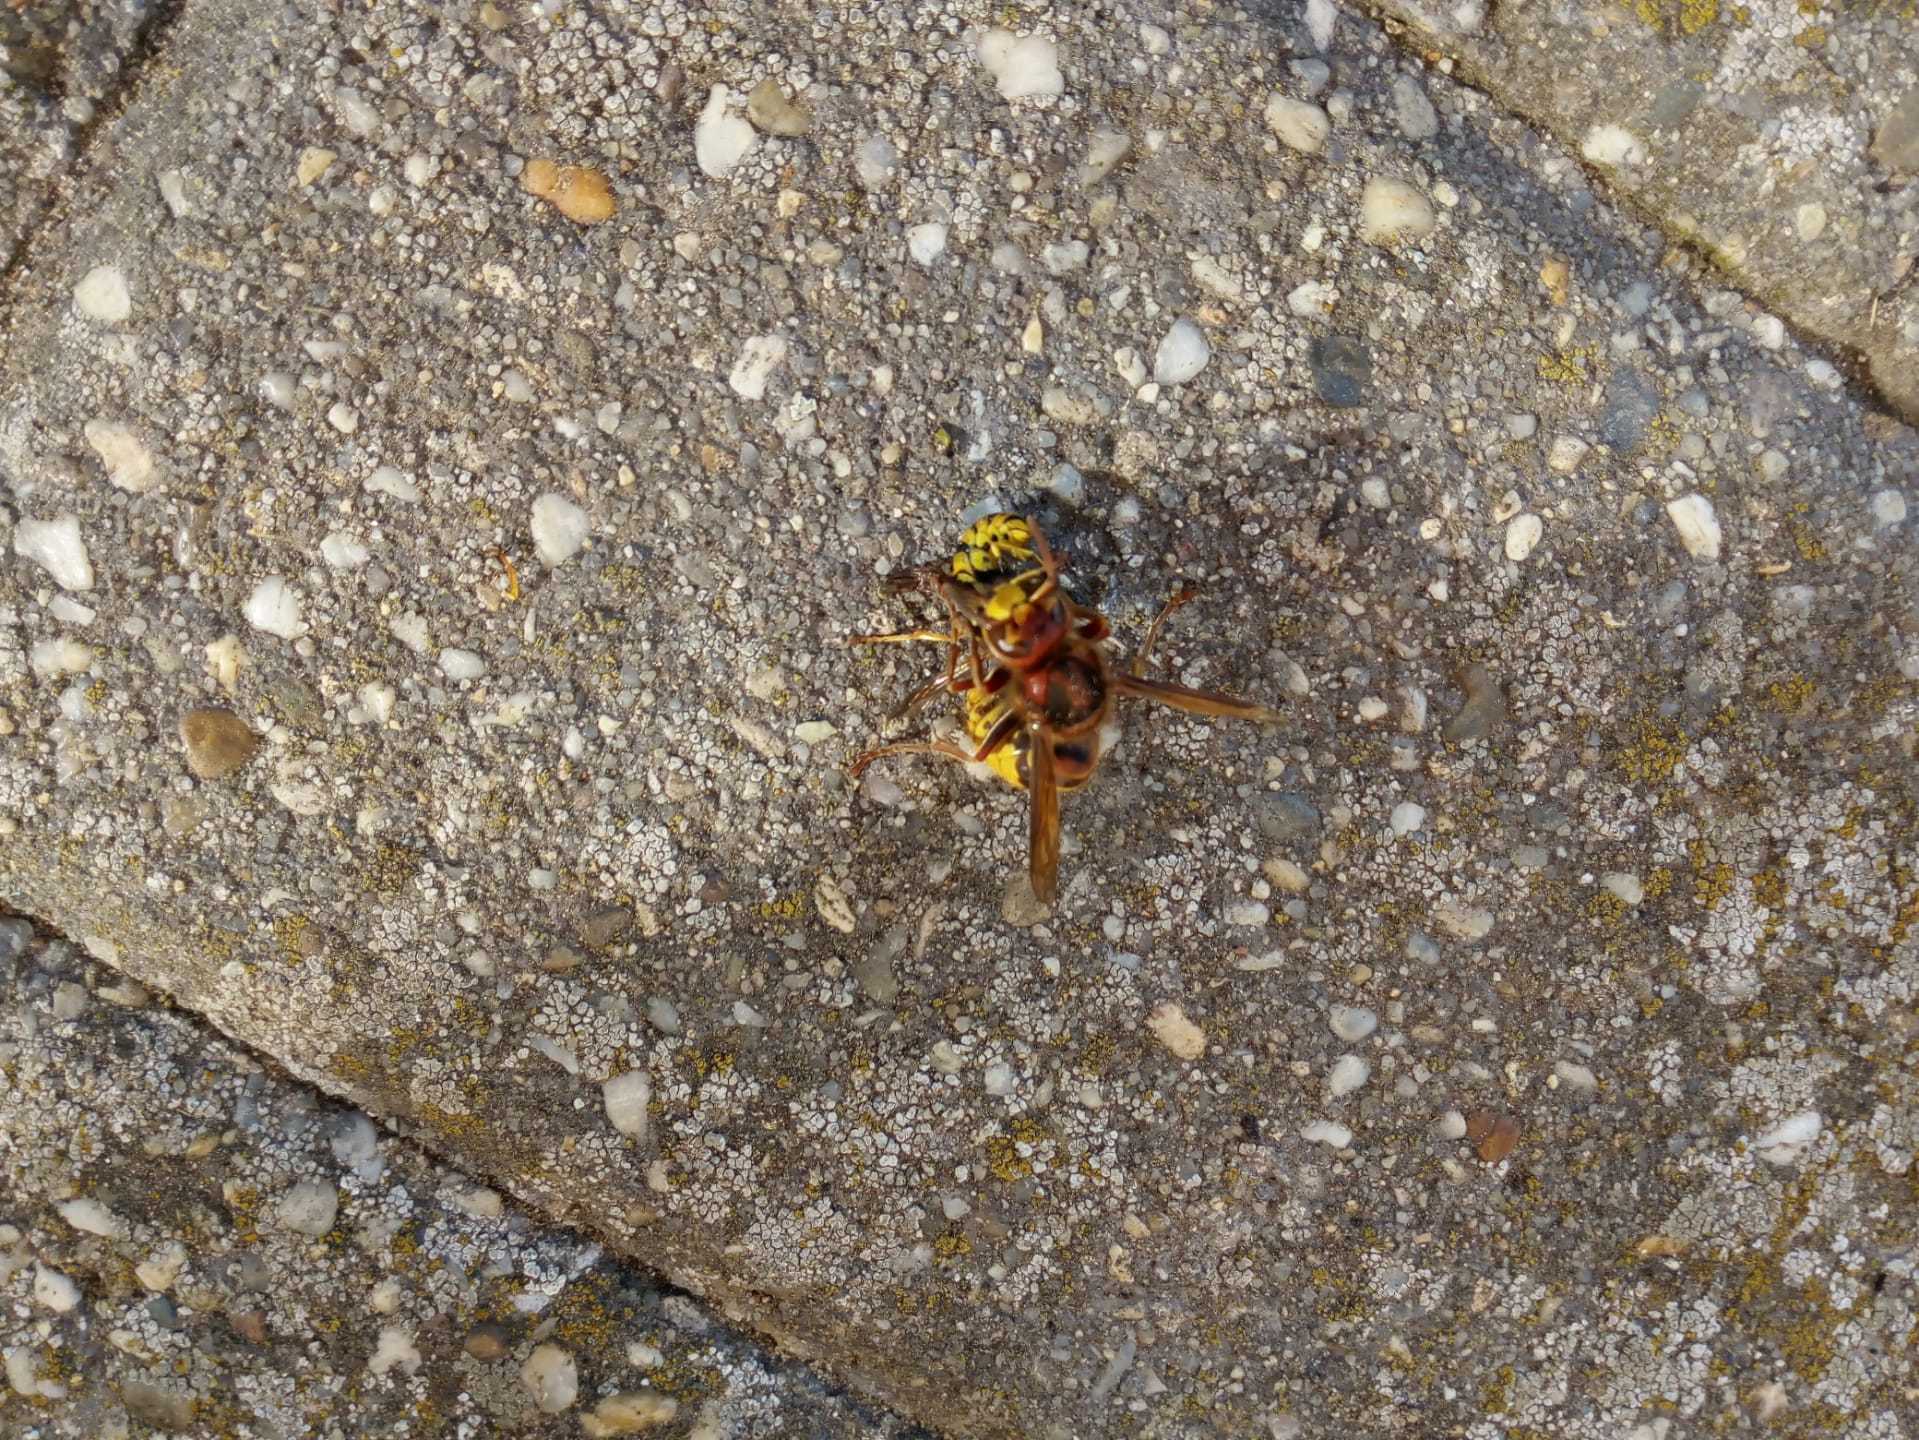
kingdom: Animalia
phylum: Arthropoda
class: Insecta
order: Hymenoptera
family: Vespidae
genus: Vespa
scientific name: Vespa crabro
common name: Hornet
